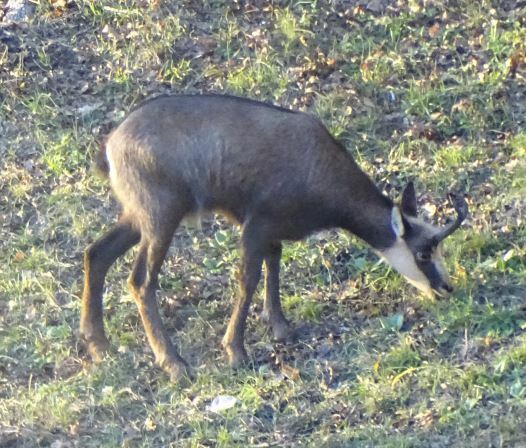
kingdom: Animalia
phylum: Chordata
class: Mammalia
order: Artiodactyla
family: Bovidae
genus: Rupicapra
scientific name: Rupicapra rupicapra
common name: Chamois
